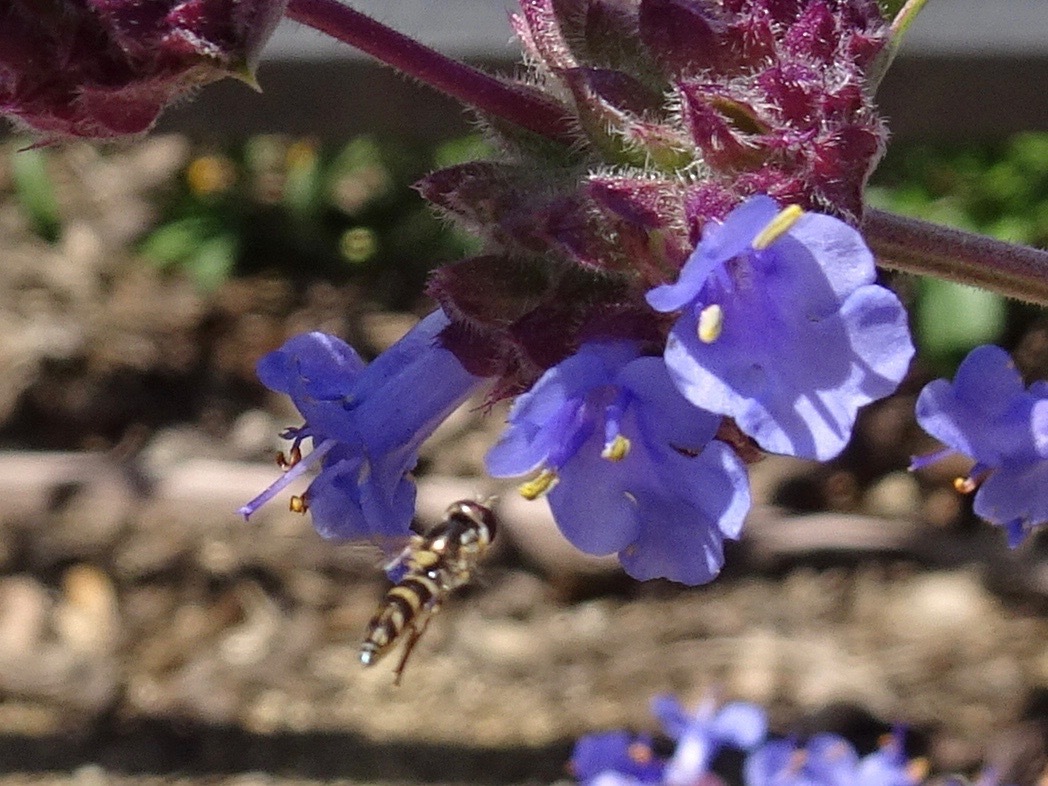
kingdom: Animalia
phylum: Arthropoda
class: Insecta
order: Diptera
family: Syrphidae
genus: Allograpta
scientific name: Allograpta exotica
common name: Syrphid fly
